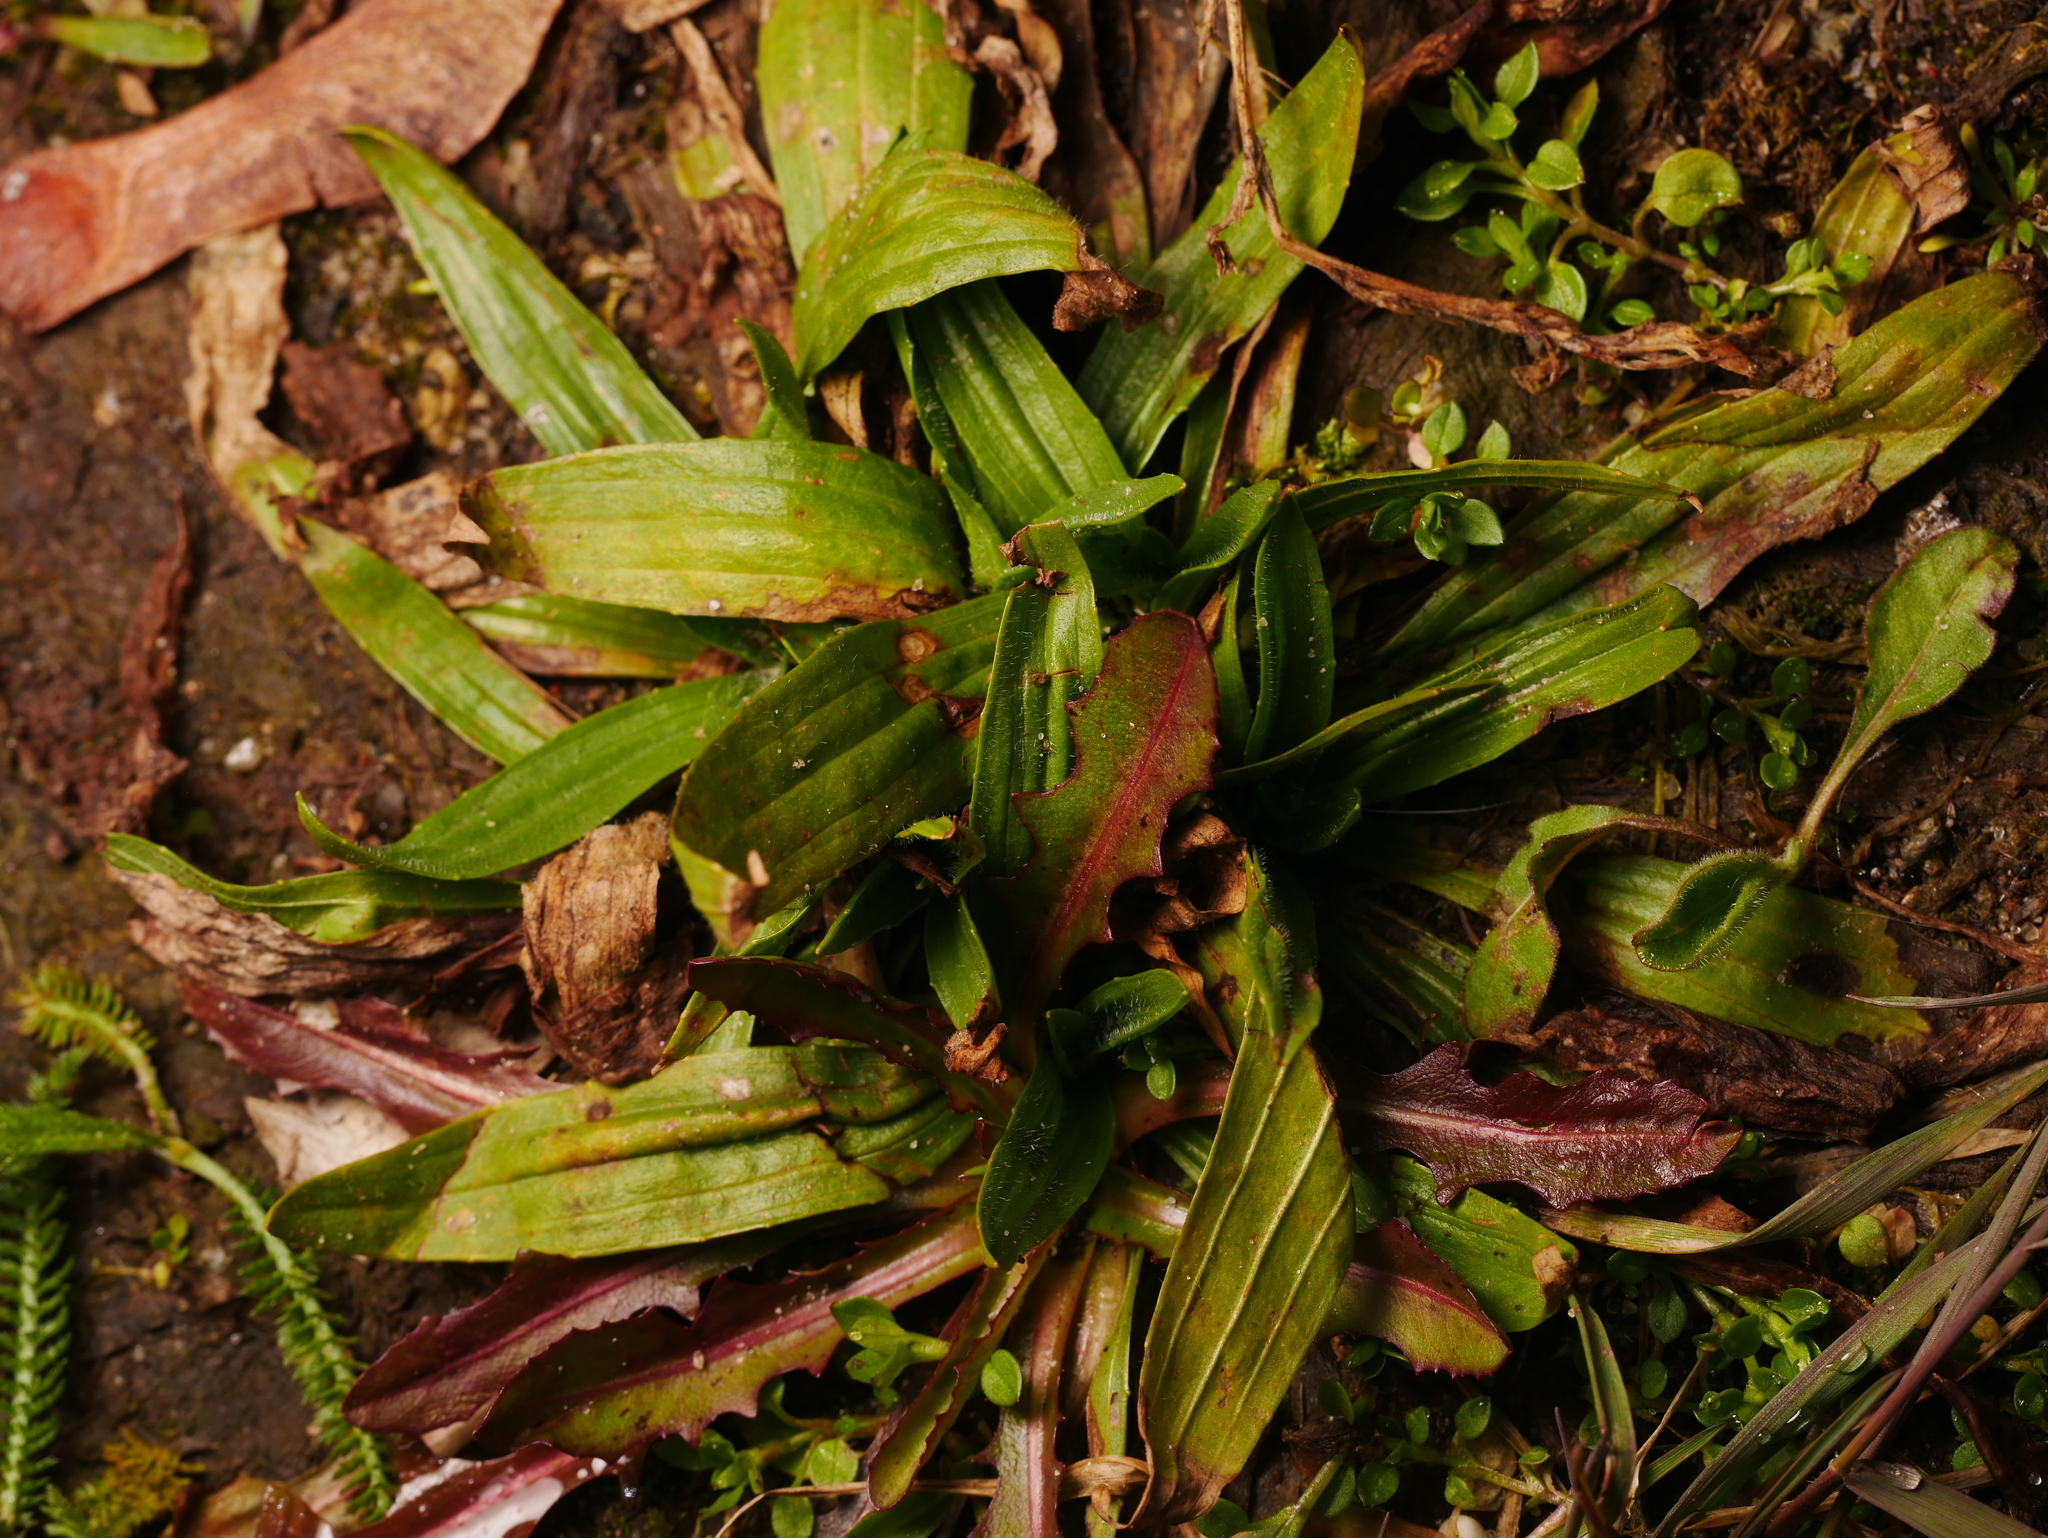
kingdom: Plantae
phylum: Tracheophyta
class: Magnoliopsida
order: Lamiales
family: Plantaginaceae
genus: Plantago
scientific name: Plantago lanceolata
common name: Ribwort plantain
